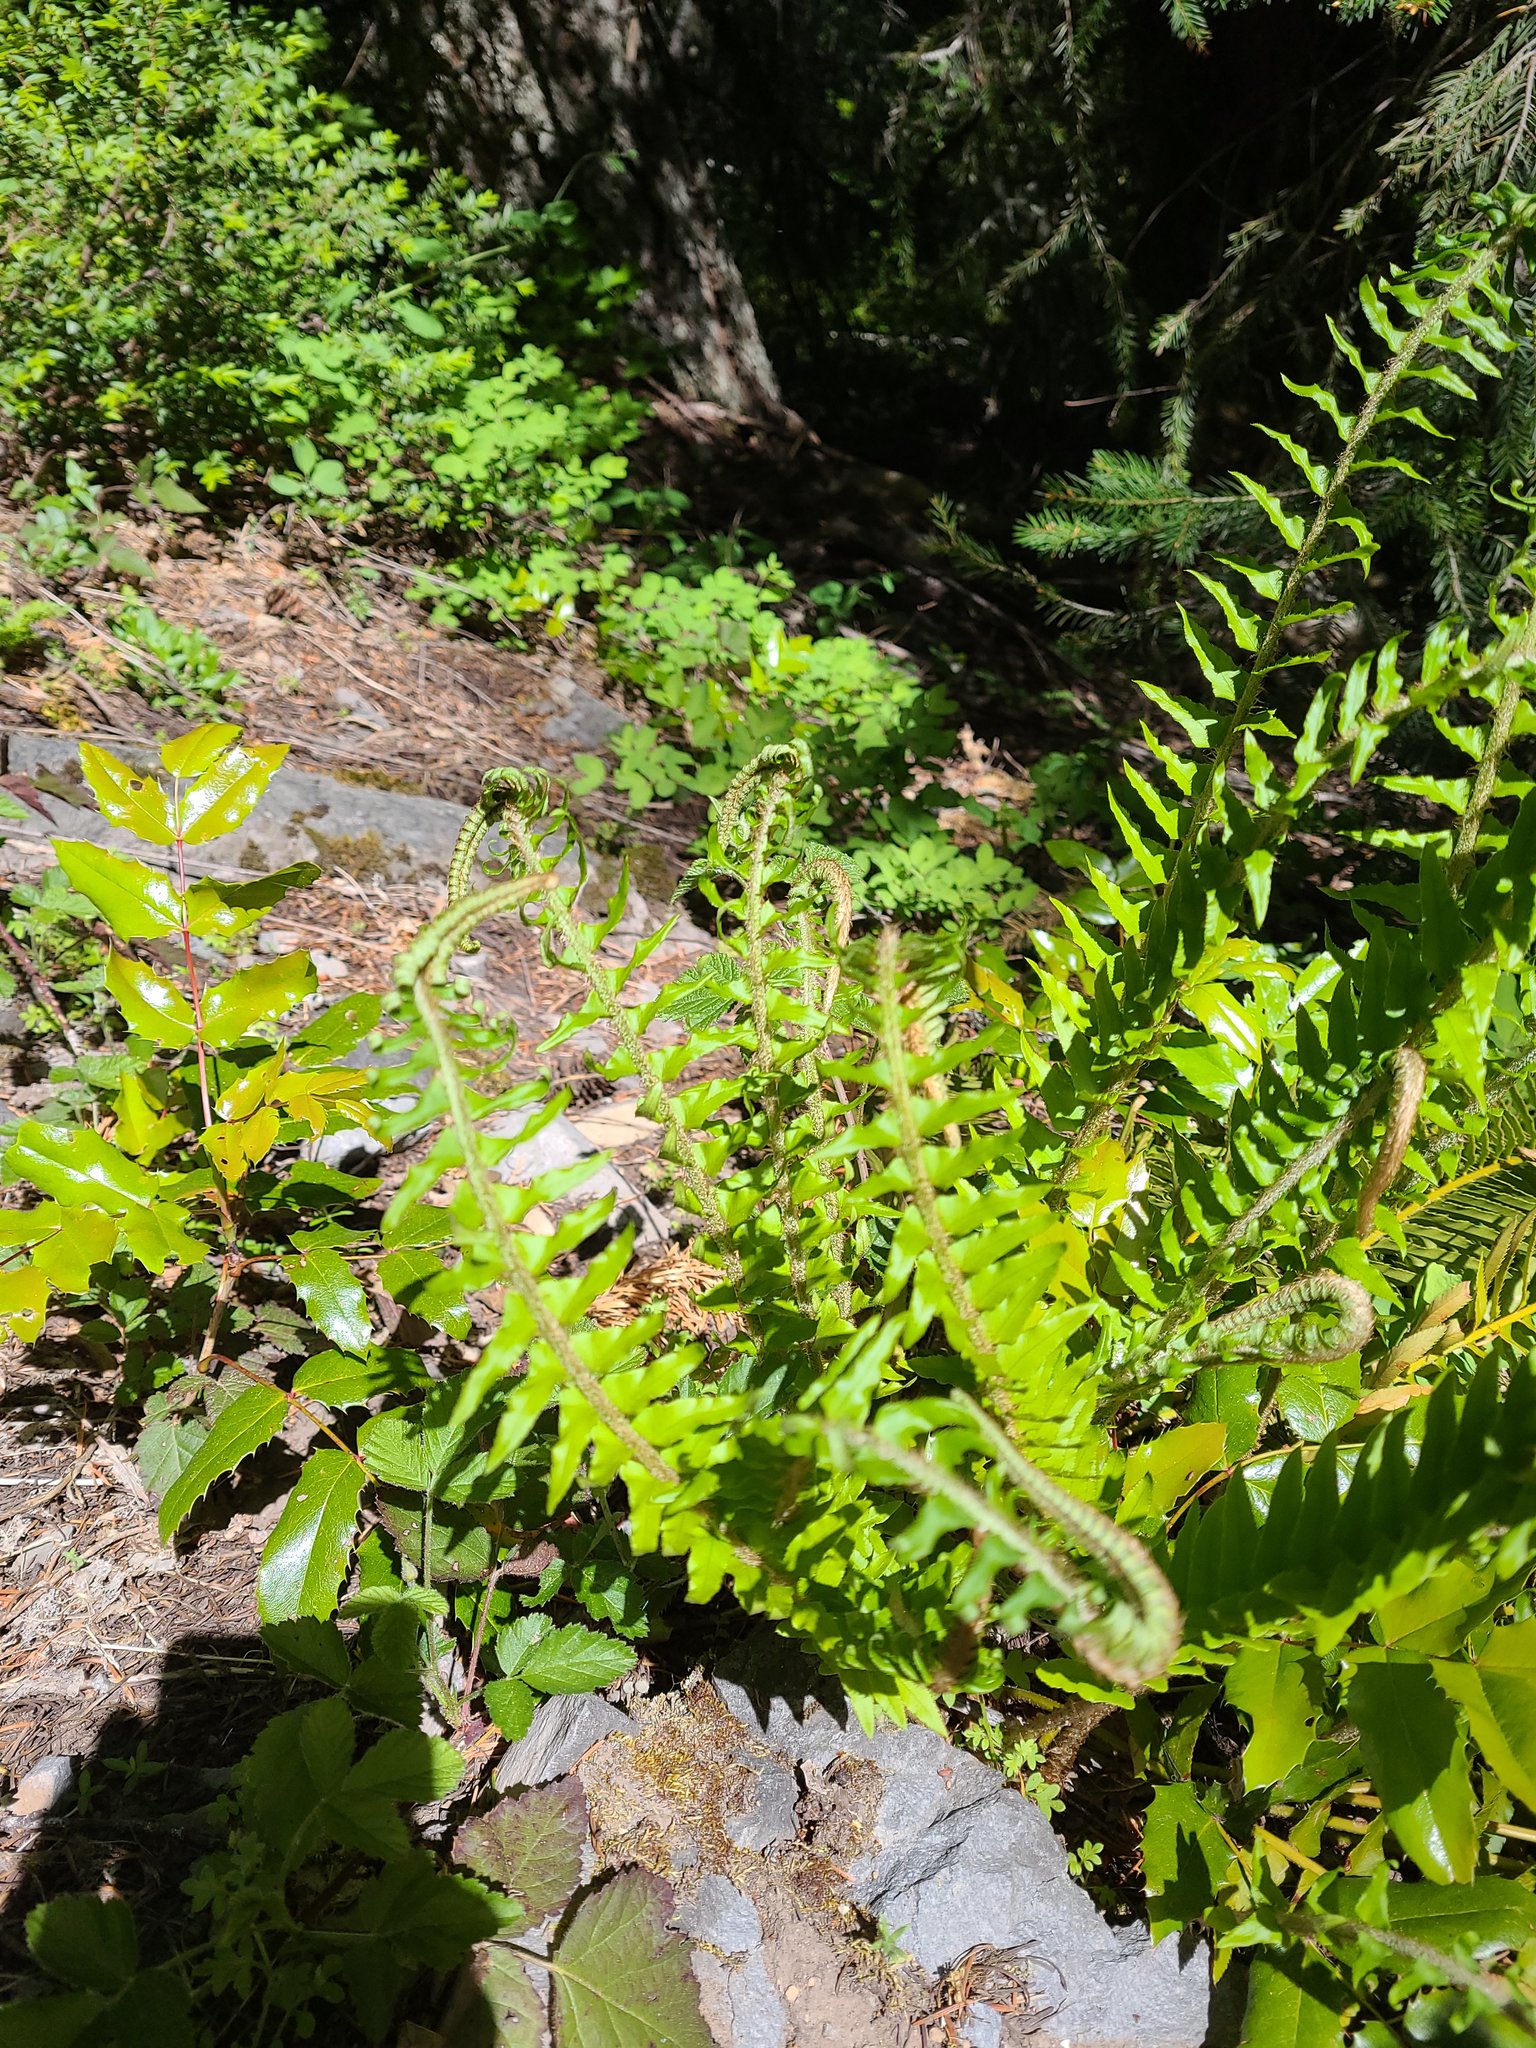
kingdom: Plantae
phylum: Tracheophyta
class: Polypodiopsida
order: Polypodiales
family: Dryopteridaceae
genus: Polystichum
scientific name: Polystichum munitum
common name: Western sword-fern
